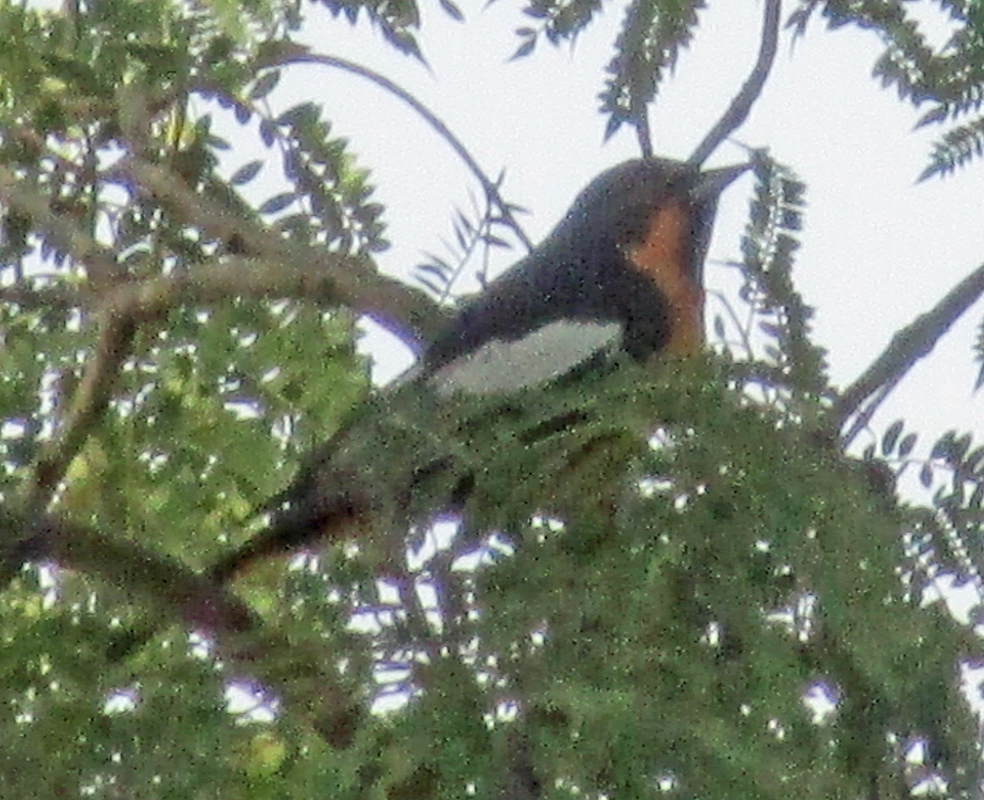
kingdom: Animalia
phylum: Chordata
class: Aves
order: Passeriformes
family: Icteridae
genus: Icterus
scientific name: Icterus abeillei
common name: Black-backed oriole
